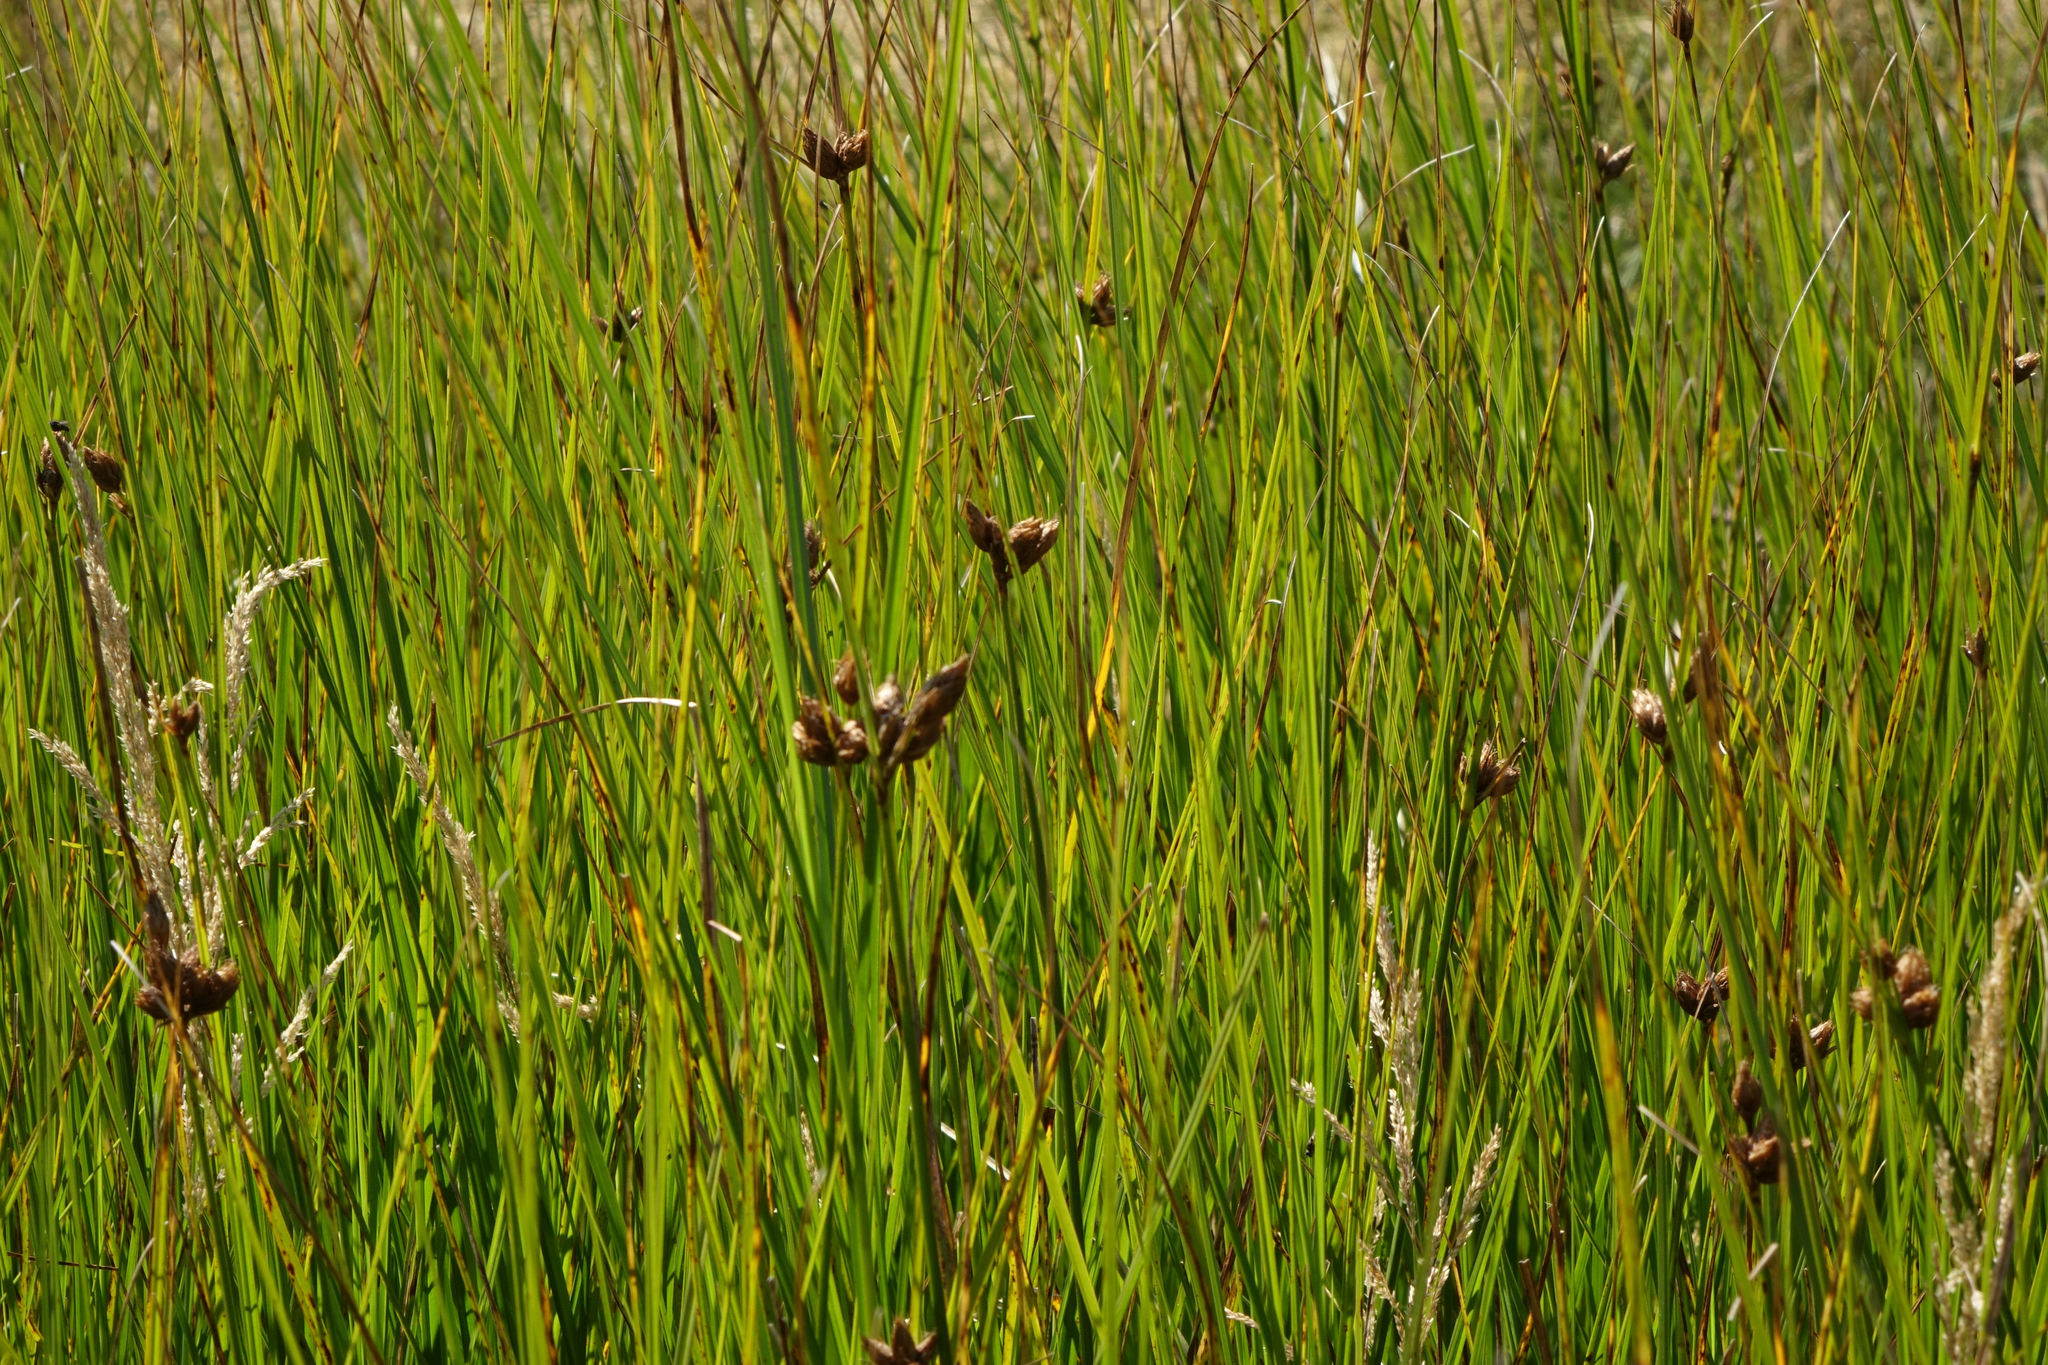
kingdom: Plantae
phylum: Tracheophyta
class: Liliopsida
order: Poales
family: Cyperaceae
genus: Bolboschoenus
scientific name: Bolboschoenus caldwellii
